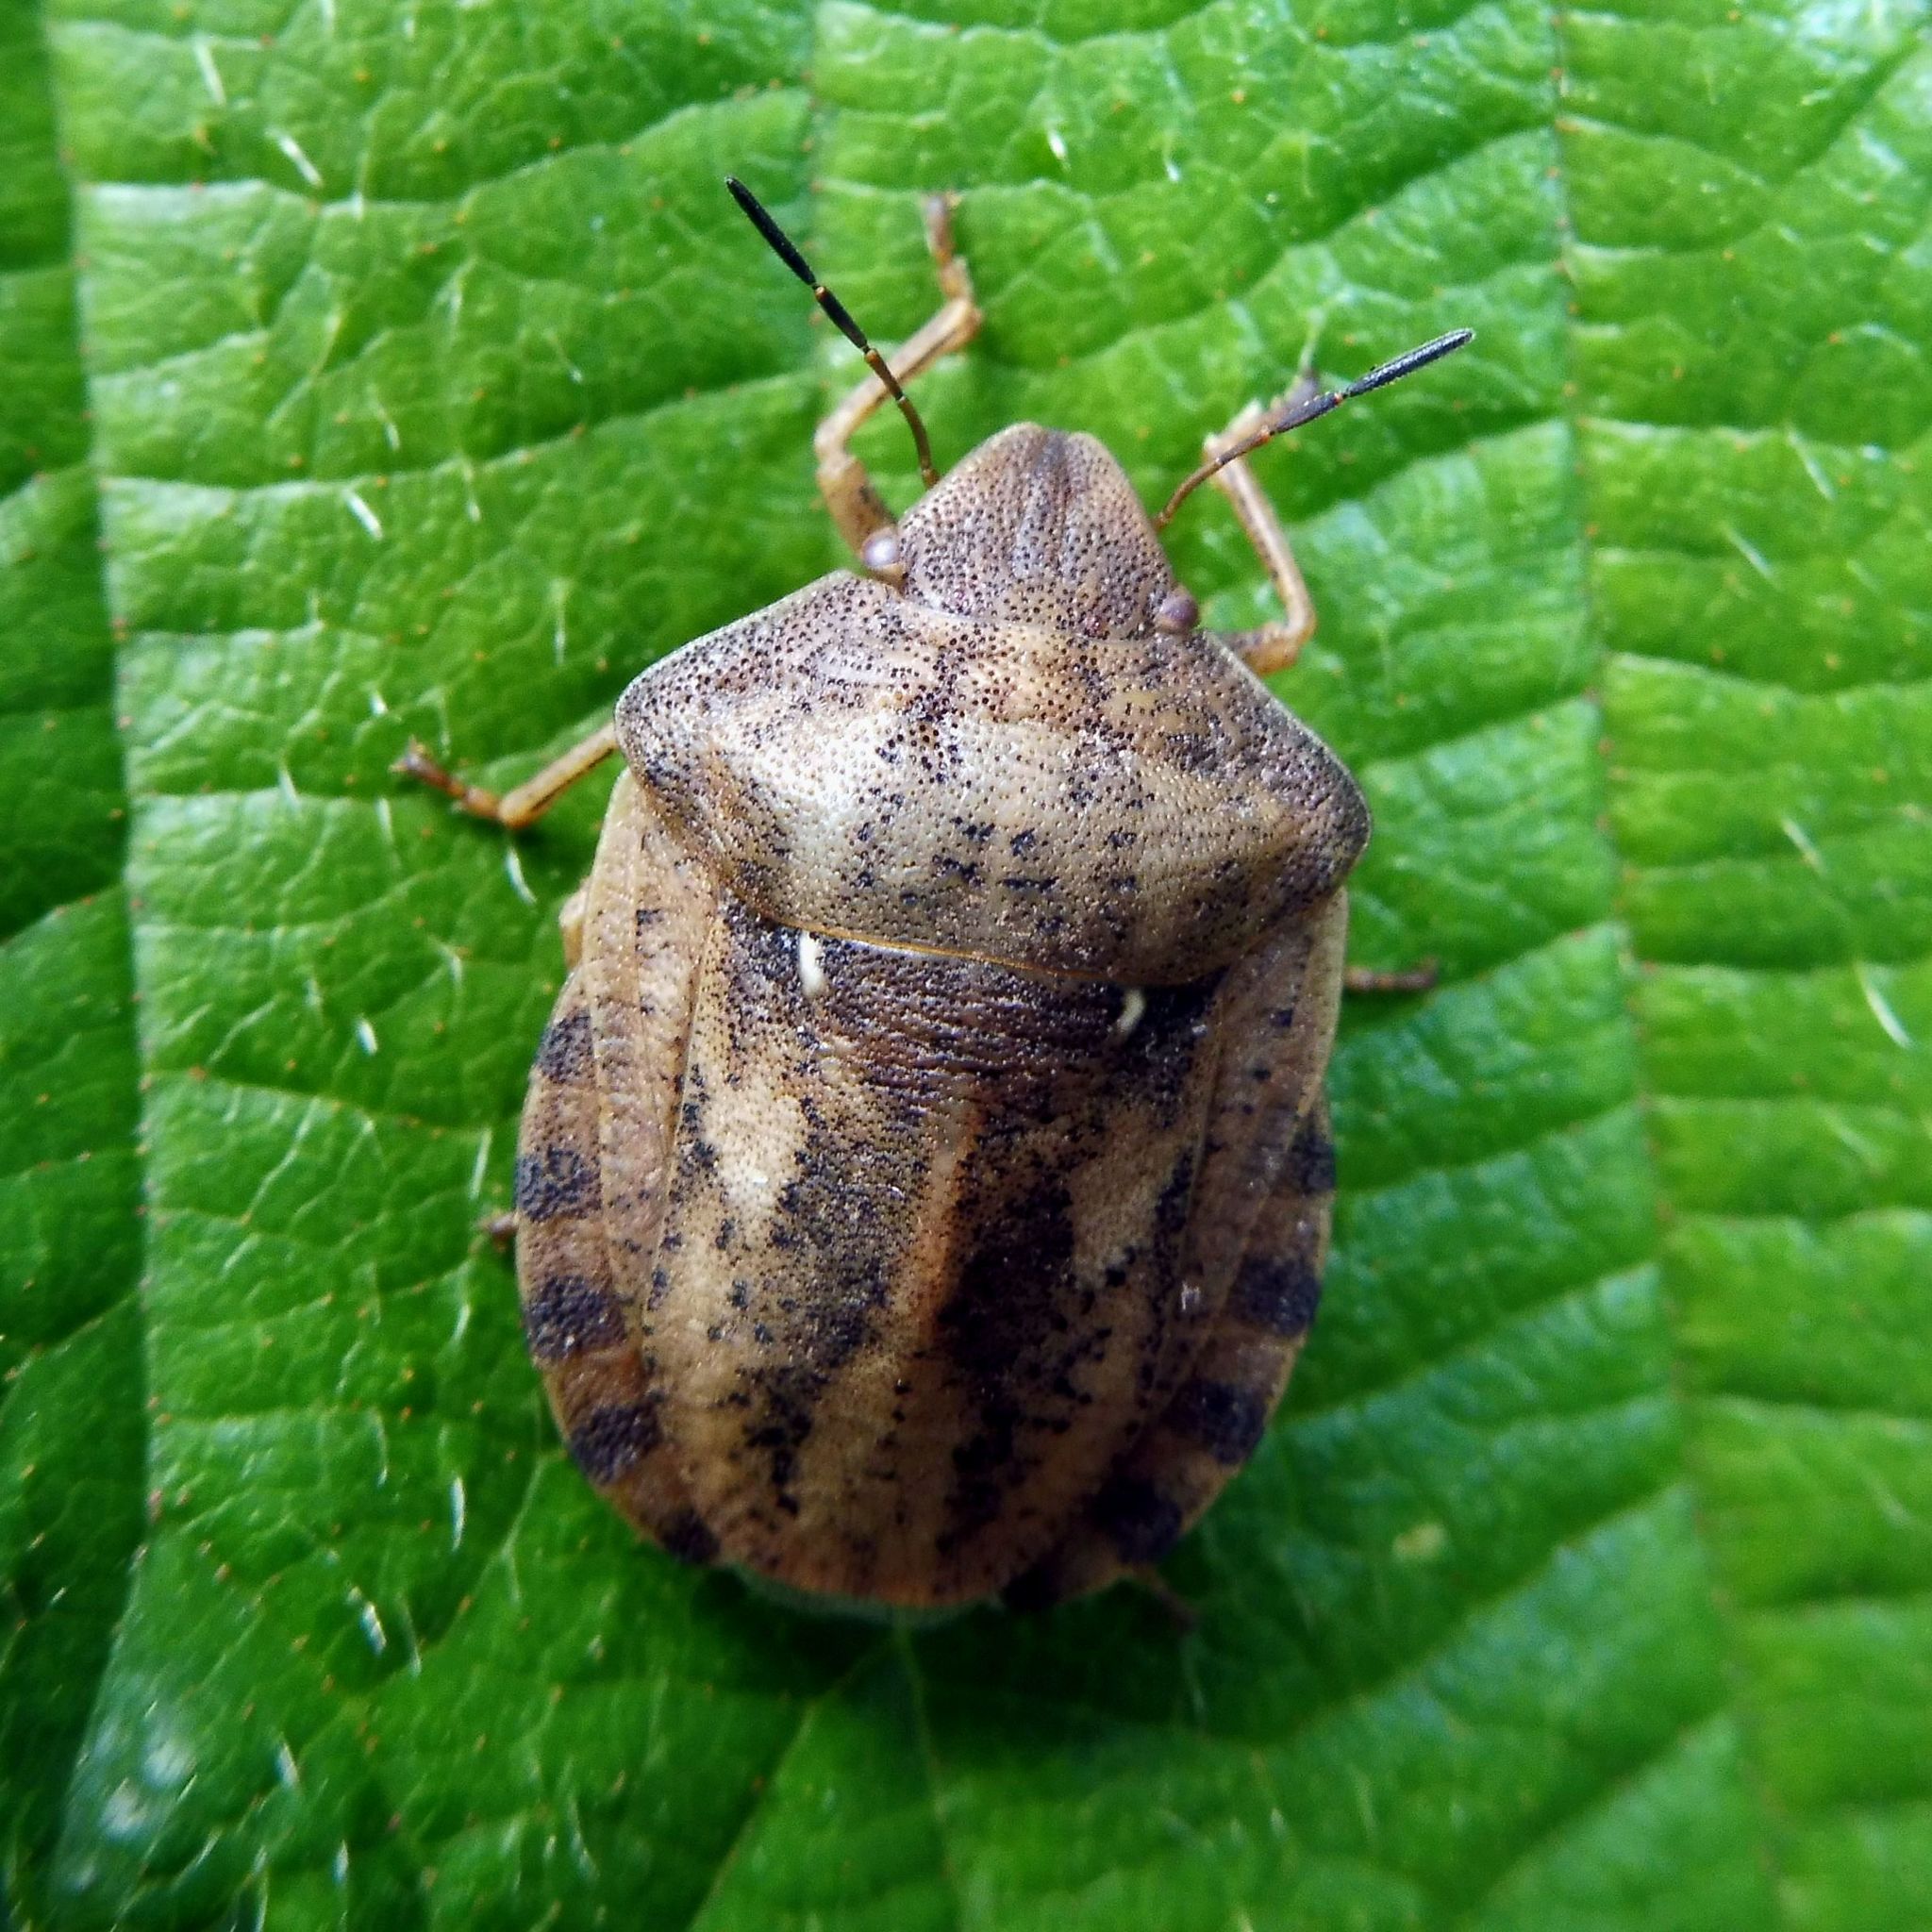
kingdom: Animalia
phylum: Arthropoda
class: Insecta
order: Hemiptera
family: Scutelleridae
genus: Eurygaster
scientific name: Eurygaster testudinaria
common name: Tortoise bug
